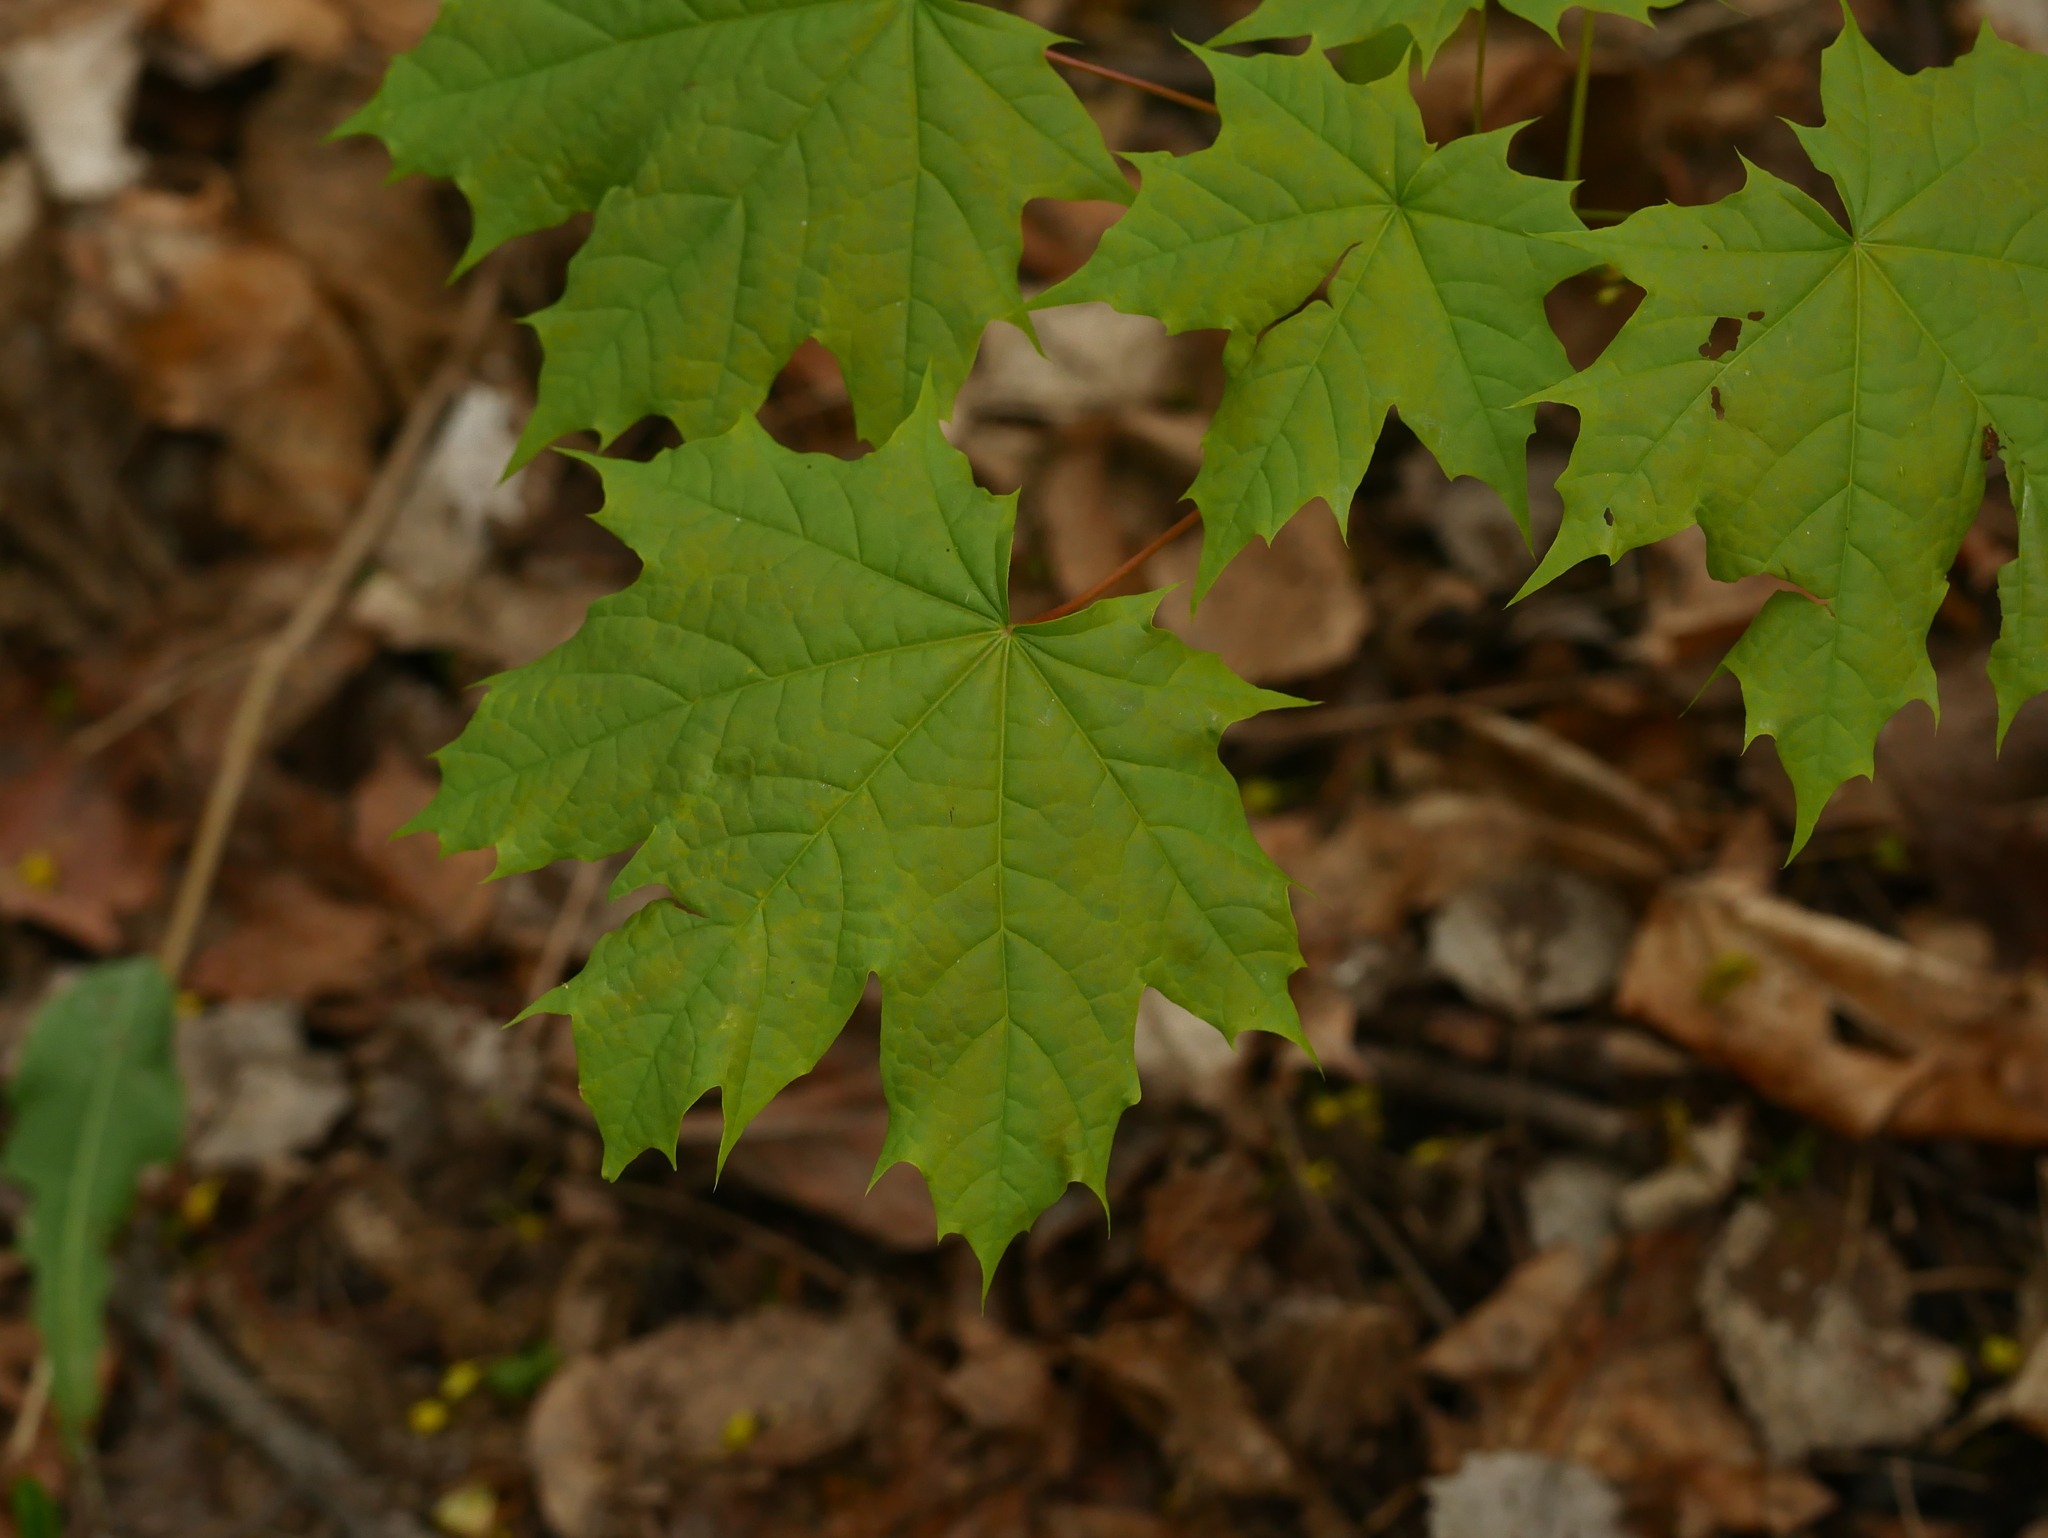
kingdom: Plantae
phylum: Tracheophyta
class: Magnoliopsida
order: Sapindales
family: Sapindaceae
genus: Acer
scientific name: Acer platanoides
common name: Norway maple
